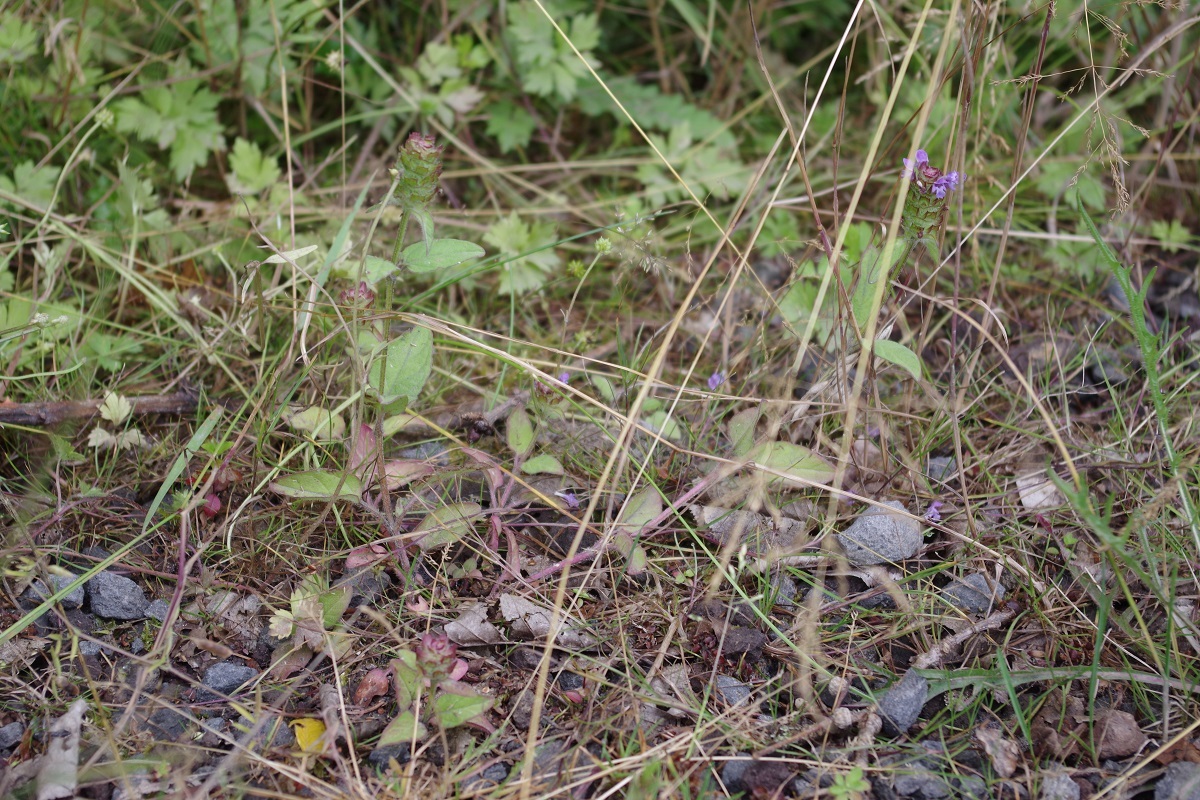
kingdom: Plantae
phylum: Tracheophyta
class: Magnoliopsida
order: Lamiales
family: Lamiaceae
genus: Prunella
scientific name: Prunella vulgaris
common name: Heal-all
